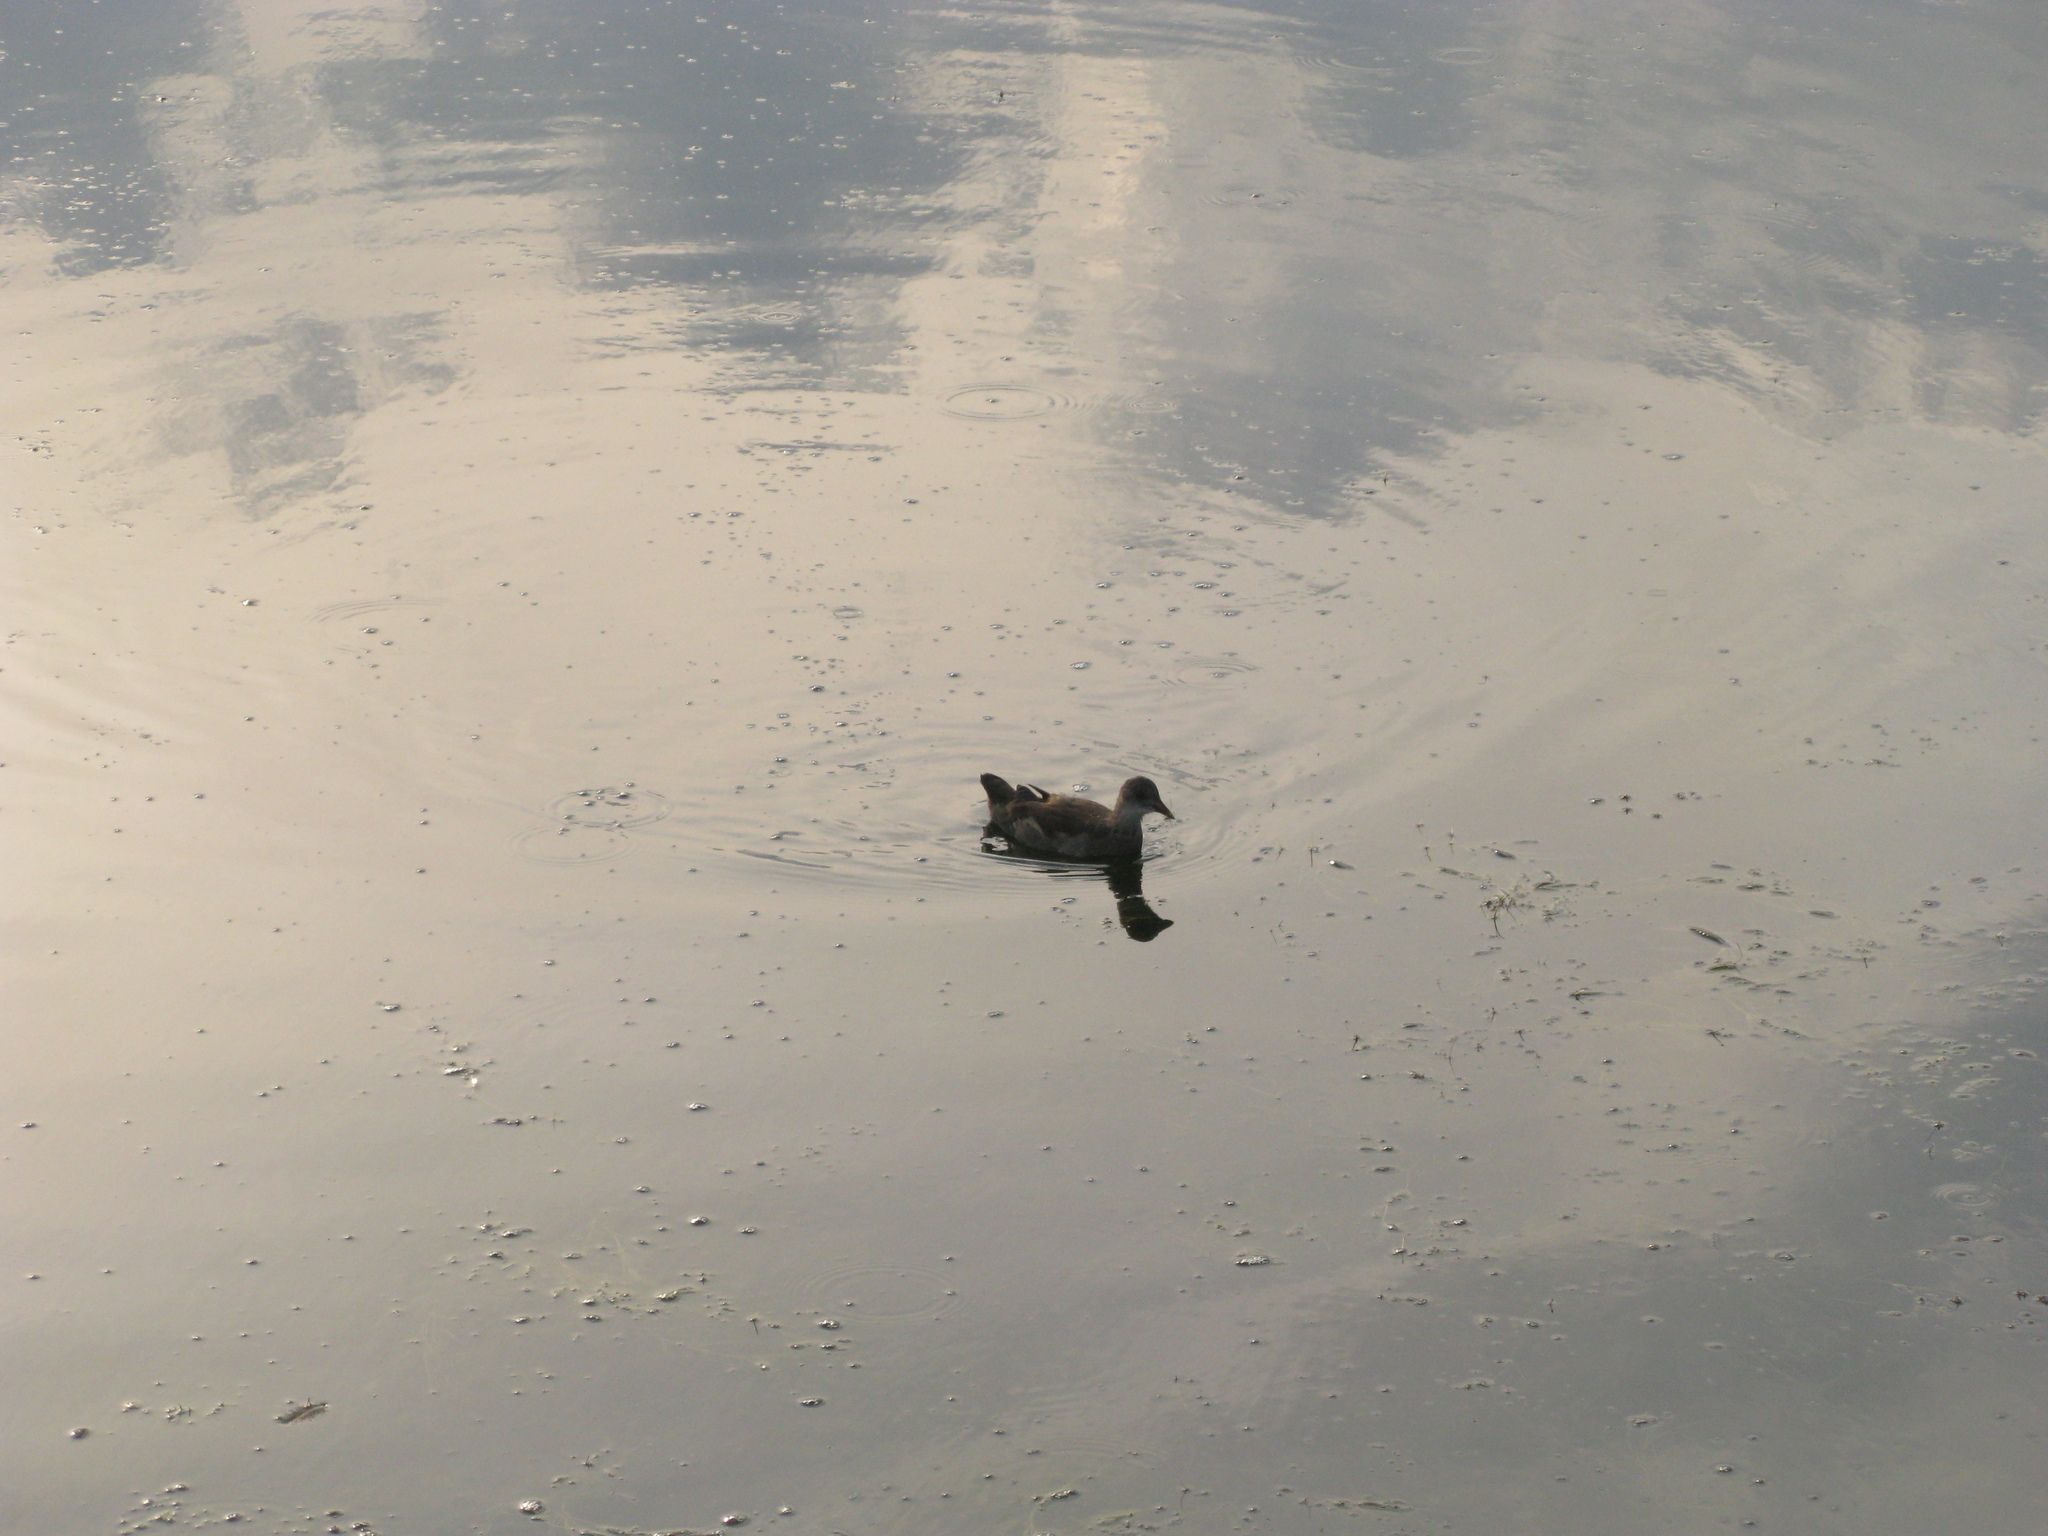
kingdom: Animalia
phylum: Chordata
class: Aves
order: Gruiformes
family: Rallidae
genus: Gallinula
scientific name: Gallinula chloropus
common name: Common moorhen
